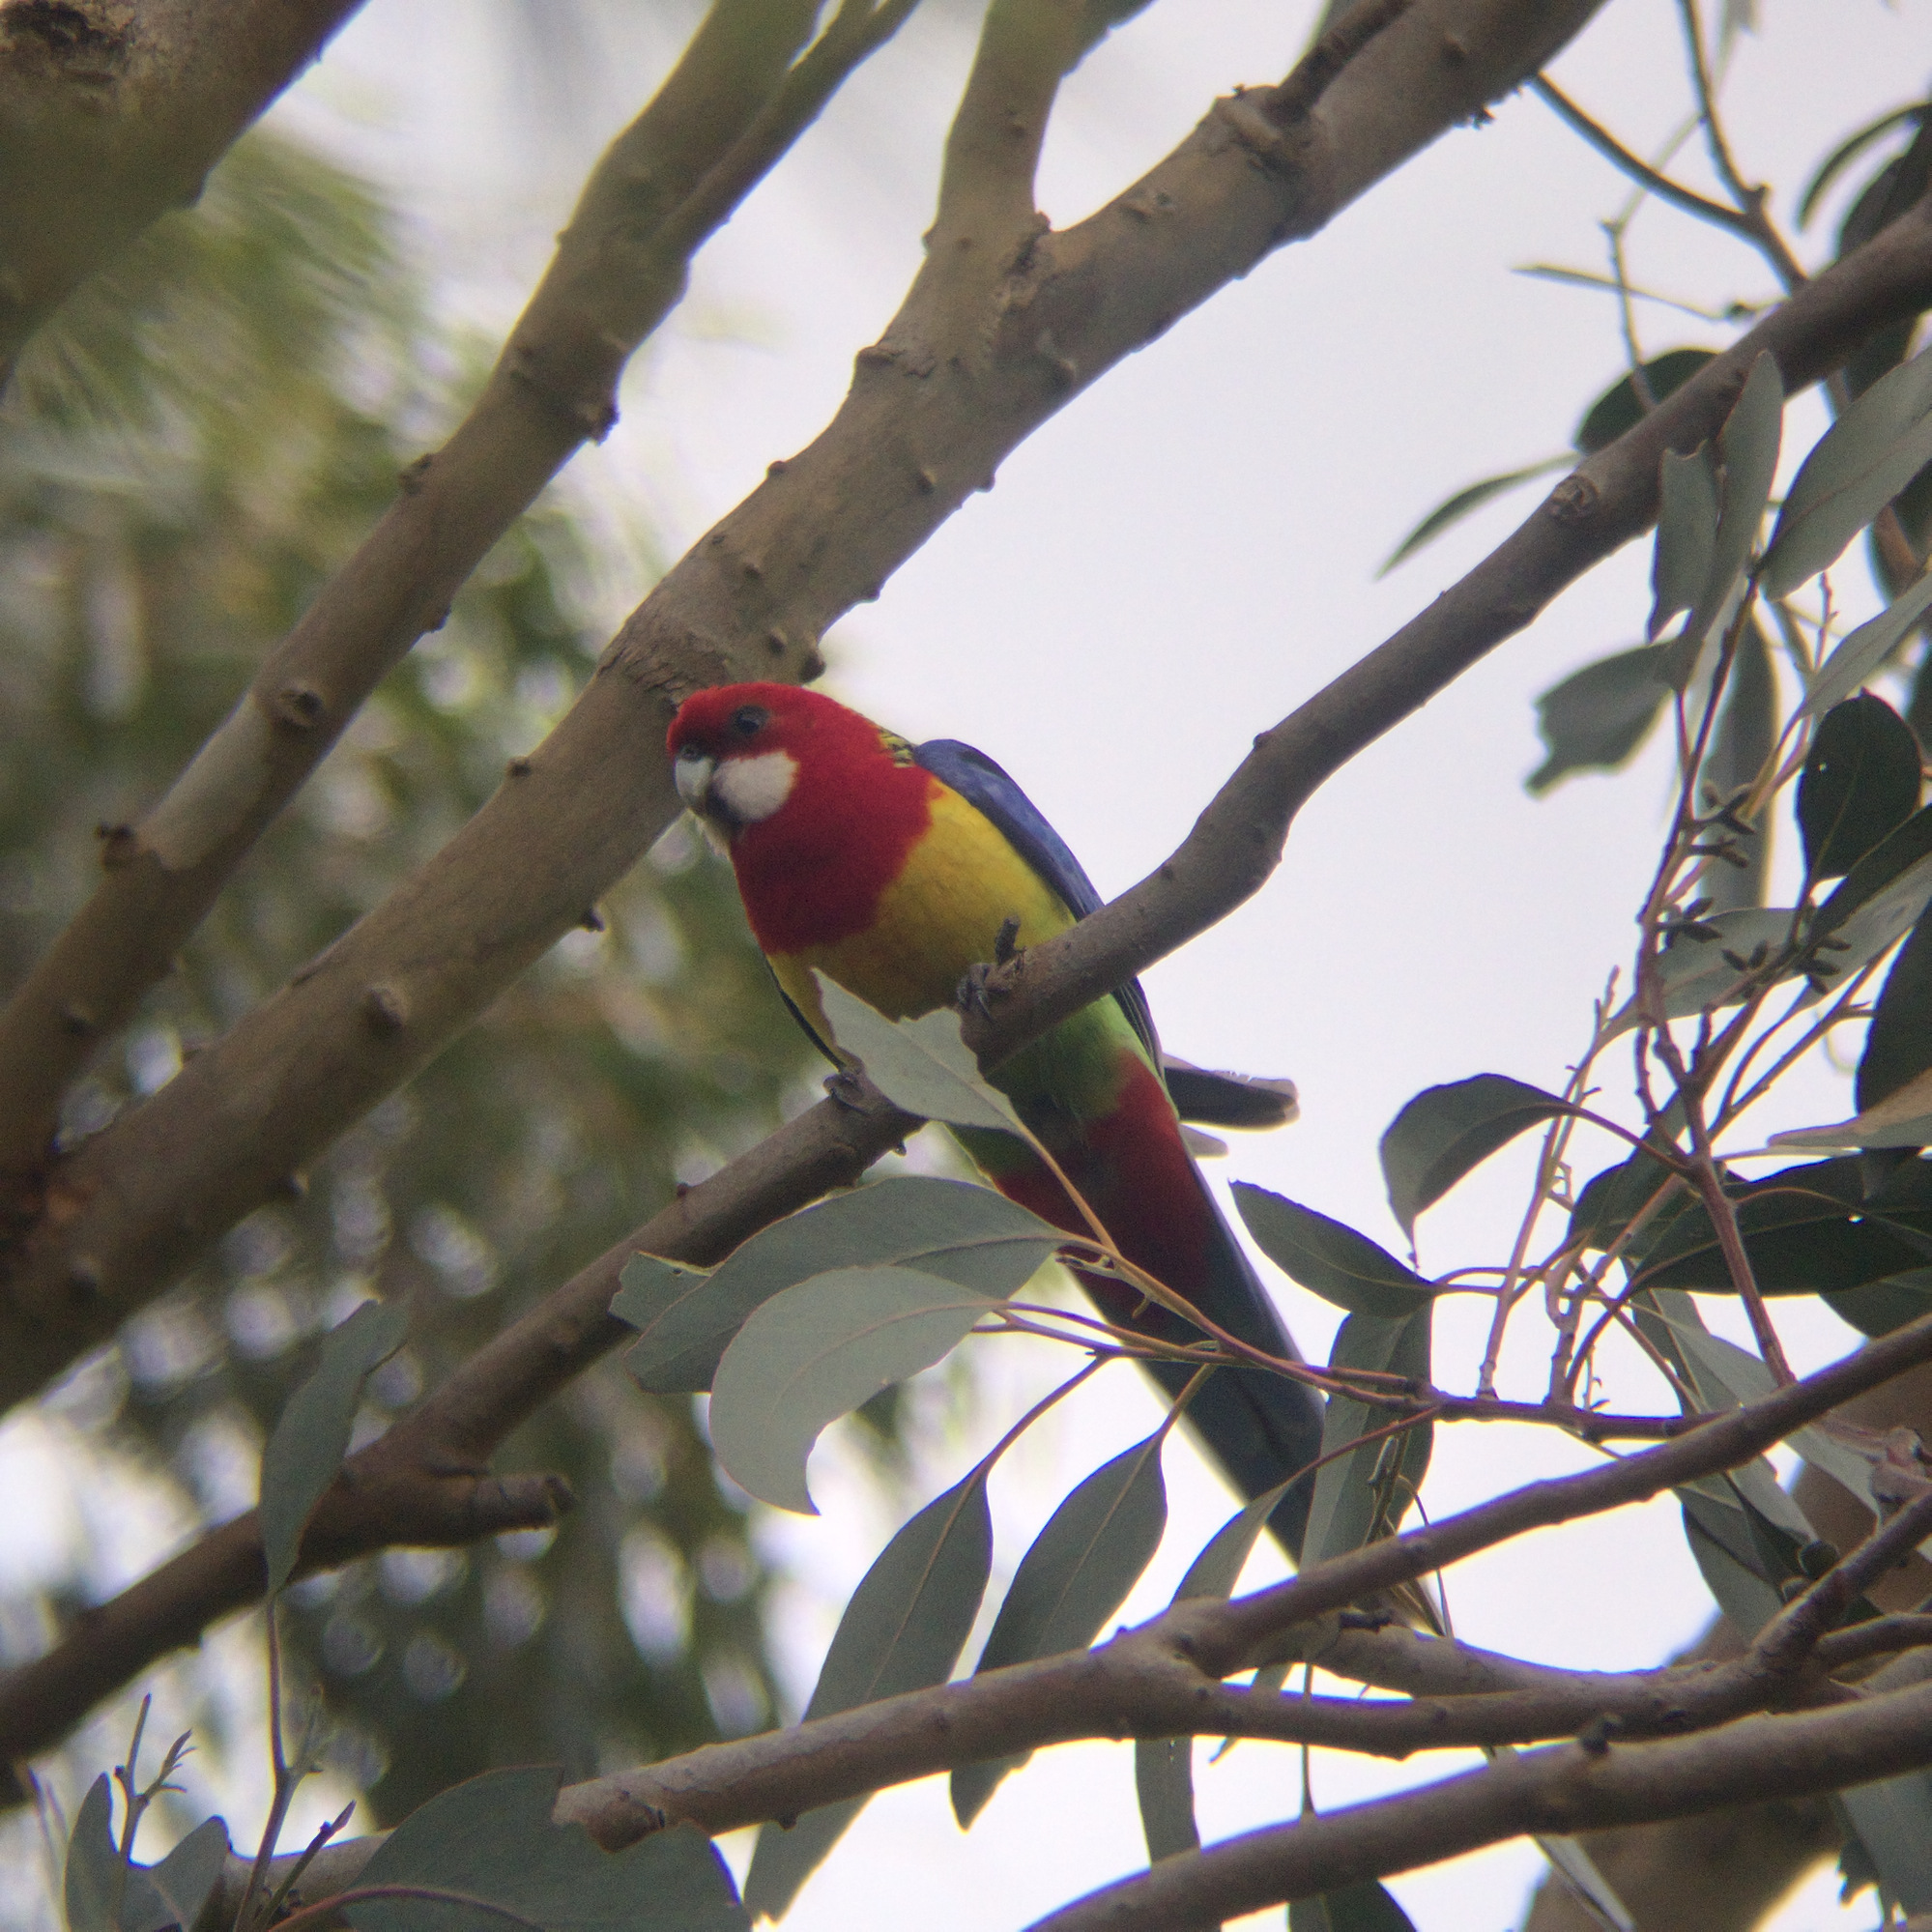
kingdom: Animalia
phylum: Chordata
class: Aves
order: Psittaciformes
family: Psittacidae
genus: Platycercus
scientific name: Platycercus eximius
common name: Eastern rosella
